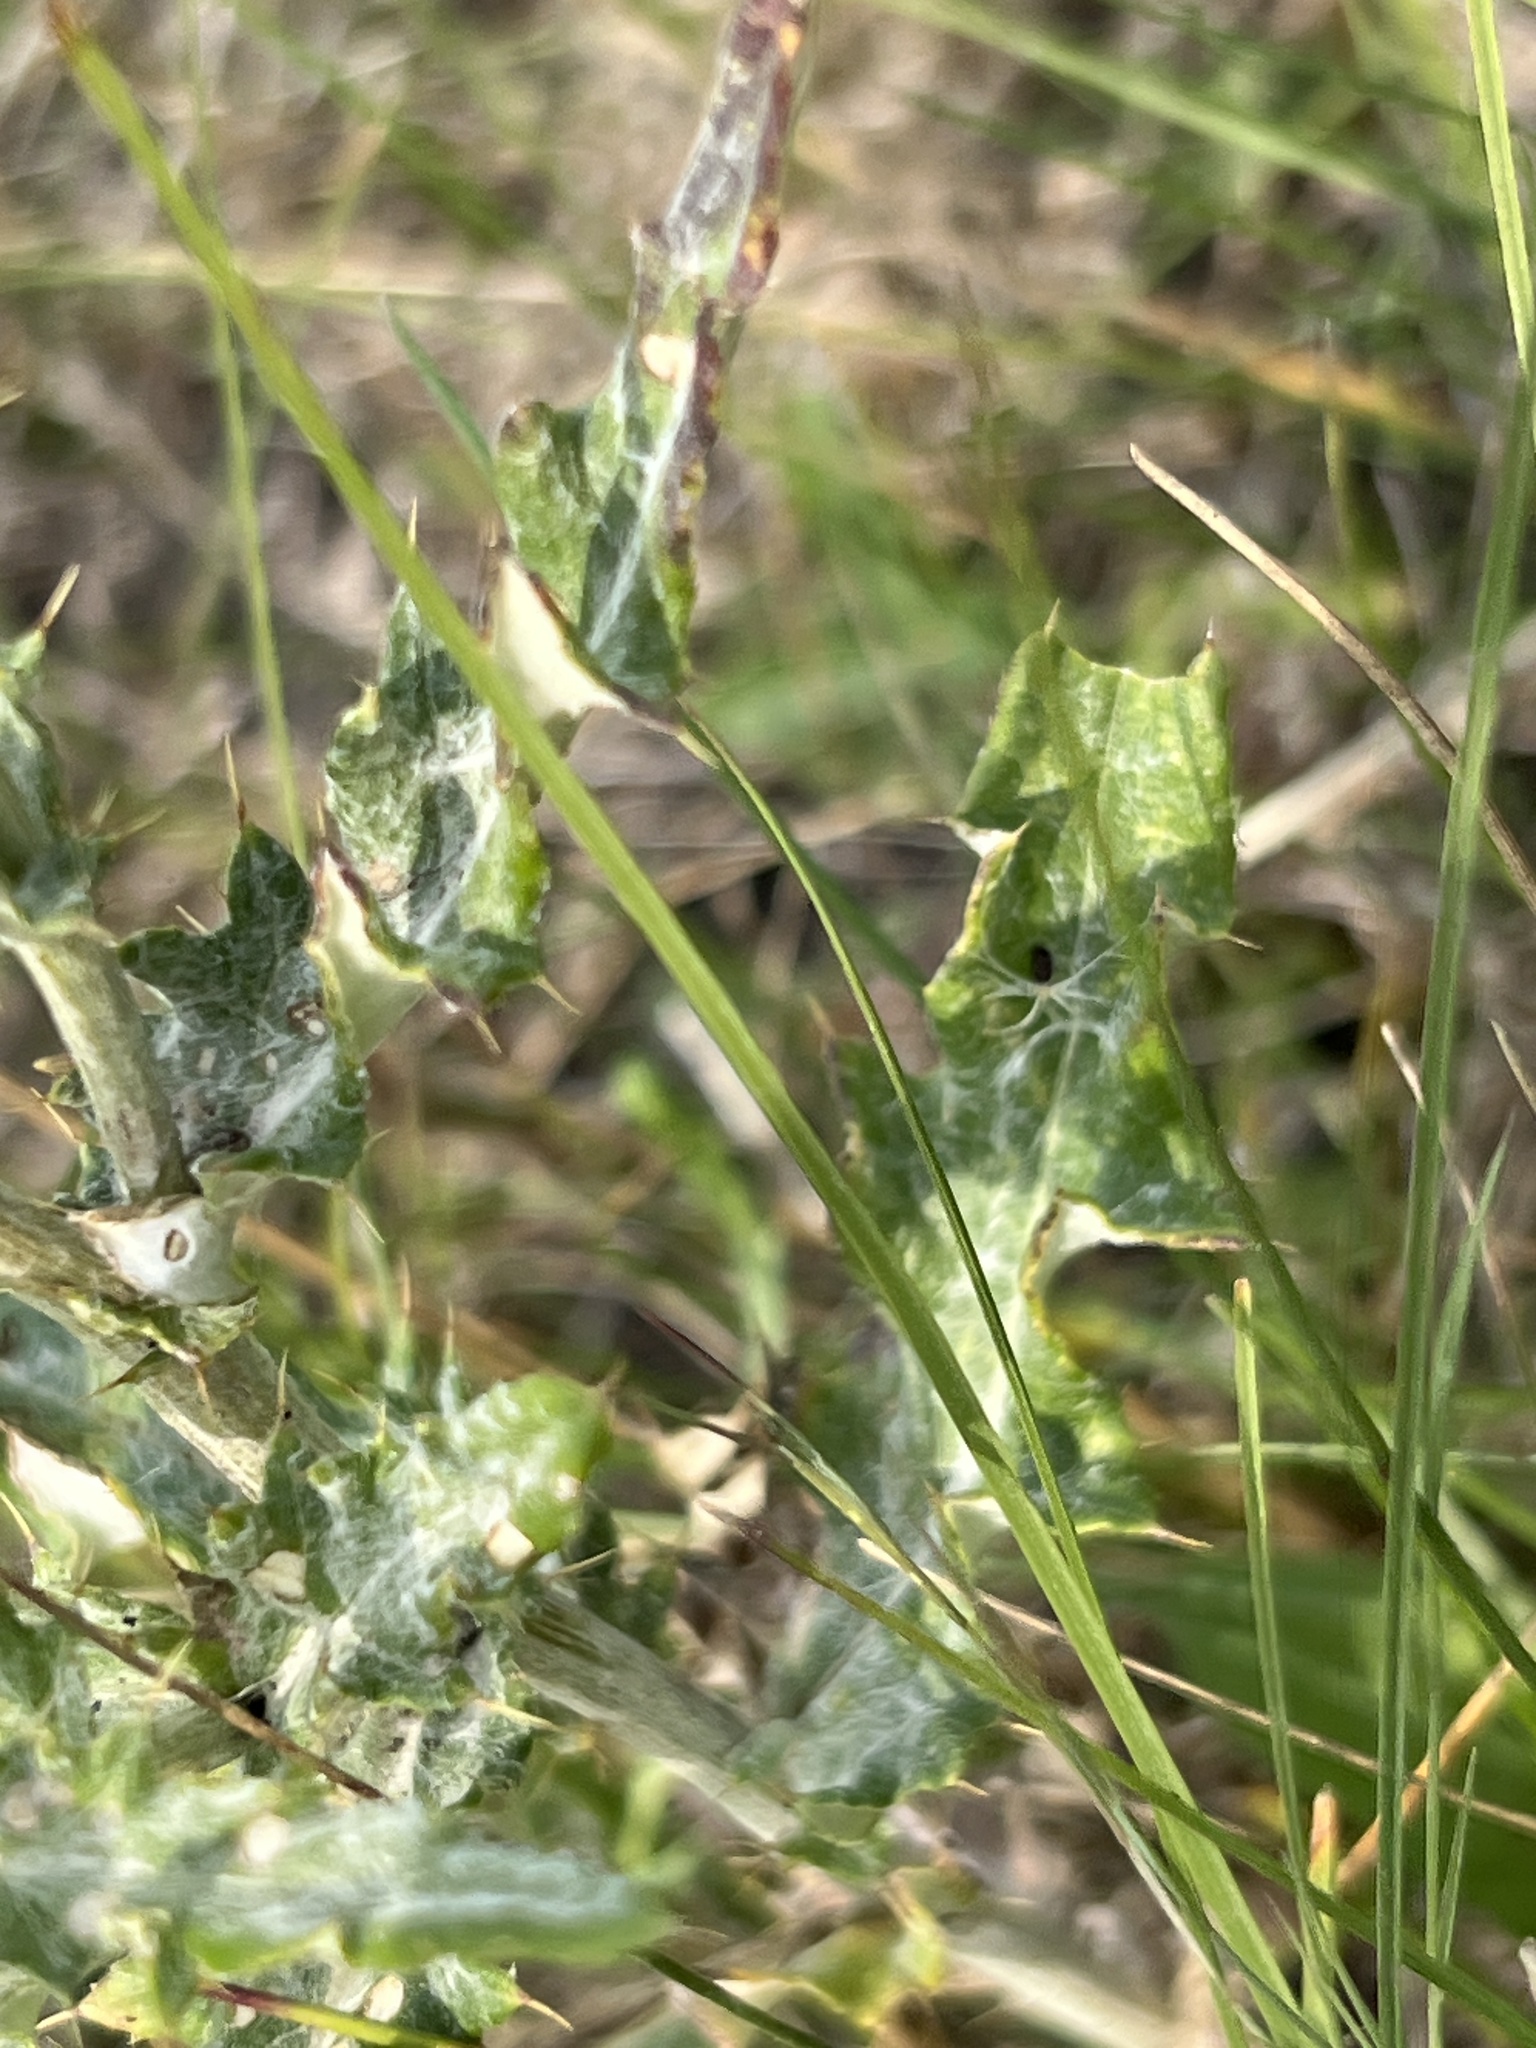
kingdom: Plantae
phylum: Tracheophyta
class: Magnoliopsida
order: Asterales
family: Asteraceae
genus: Cirsium
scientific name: Cirsium flodmanii
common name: Flodman's thistle
